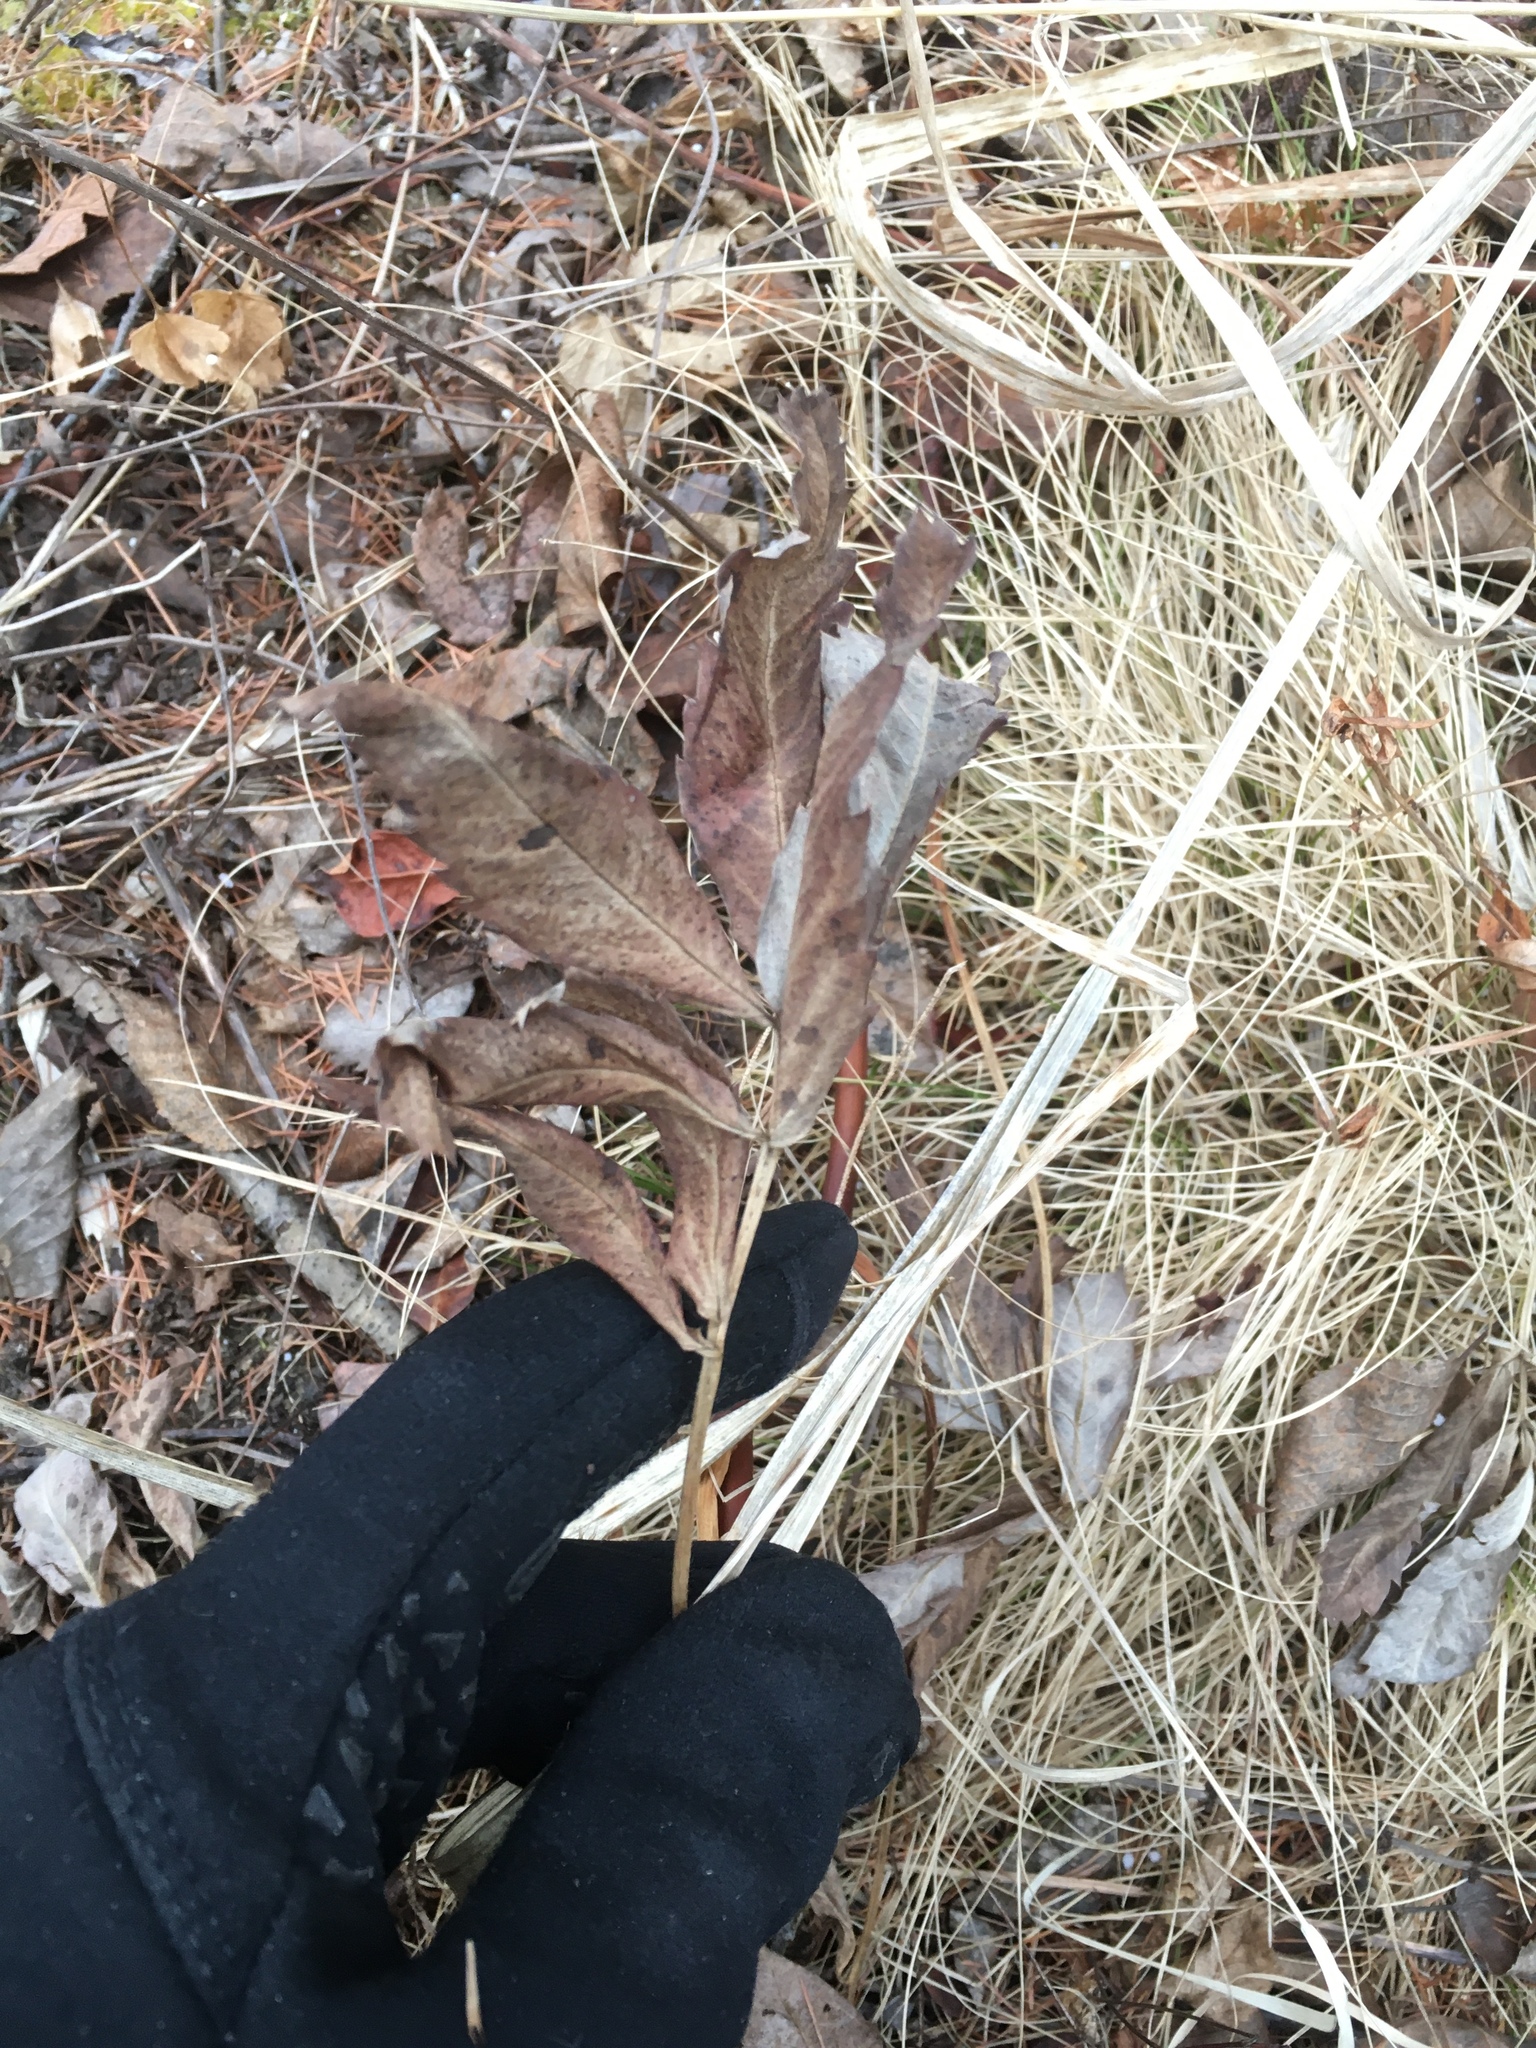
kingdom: Plantae
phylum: Tracheophyta
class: Magnoliopsida
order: Rosales
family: Rosaceae
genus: Comarum
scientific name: Comarum palustre
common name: Marsh cinquefoil
